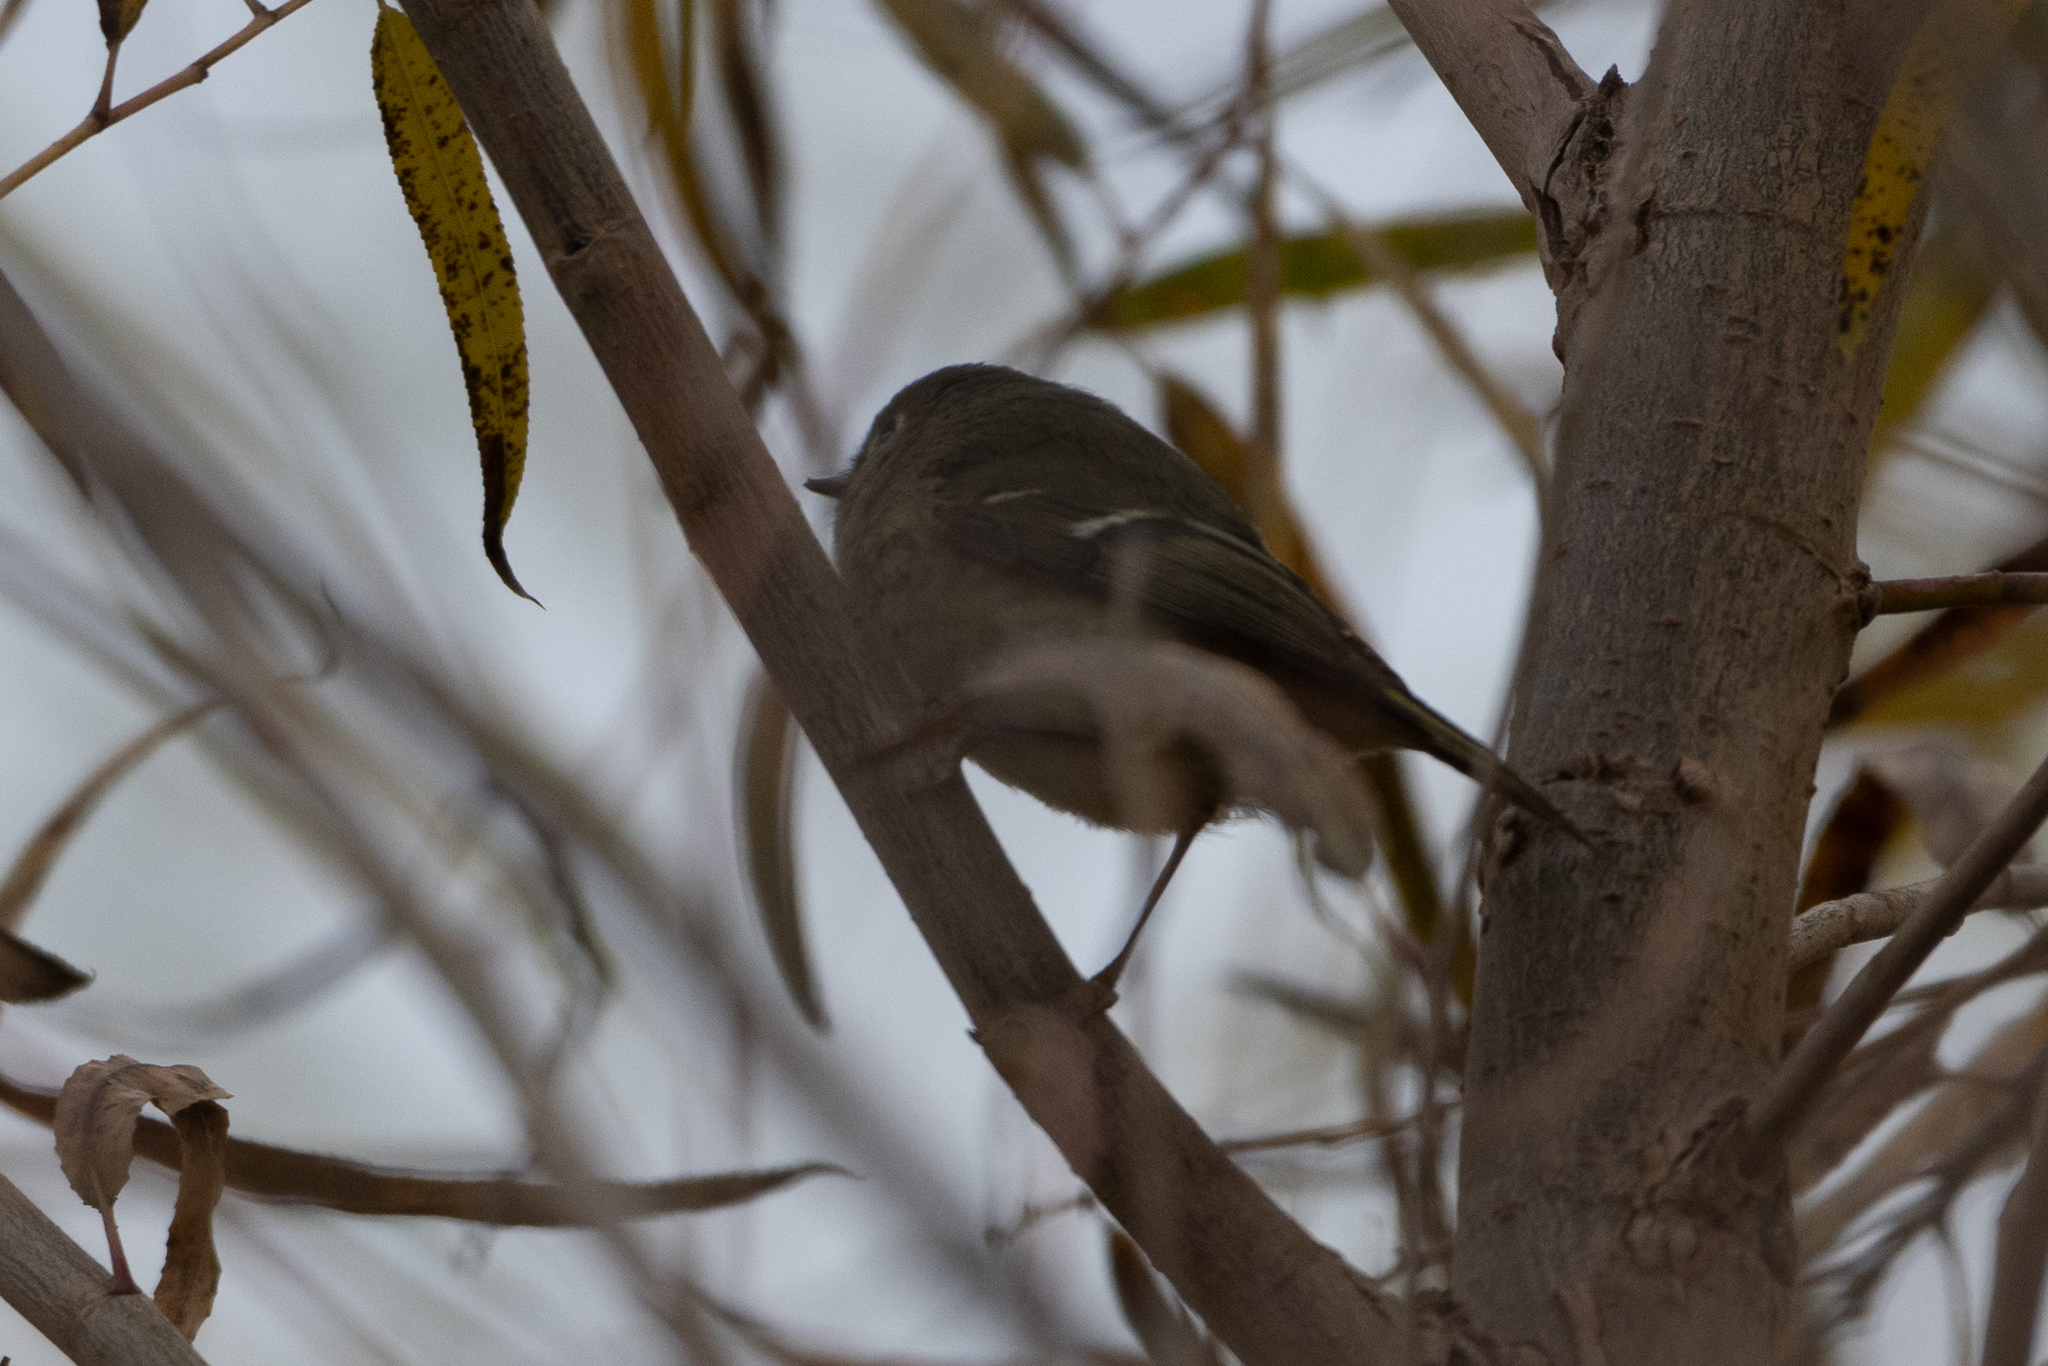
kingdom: Animalia
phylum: Chordata
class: Aves
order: Passeriformes
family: Regulidae
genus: Regulus
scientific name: Regulus calendula
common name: Ruby-crowned kinglet
